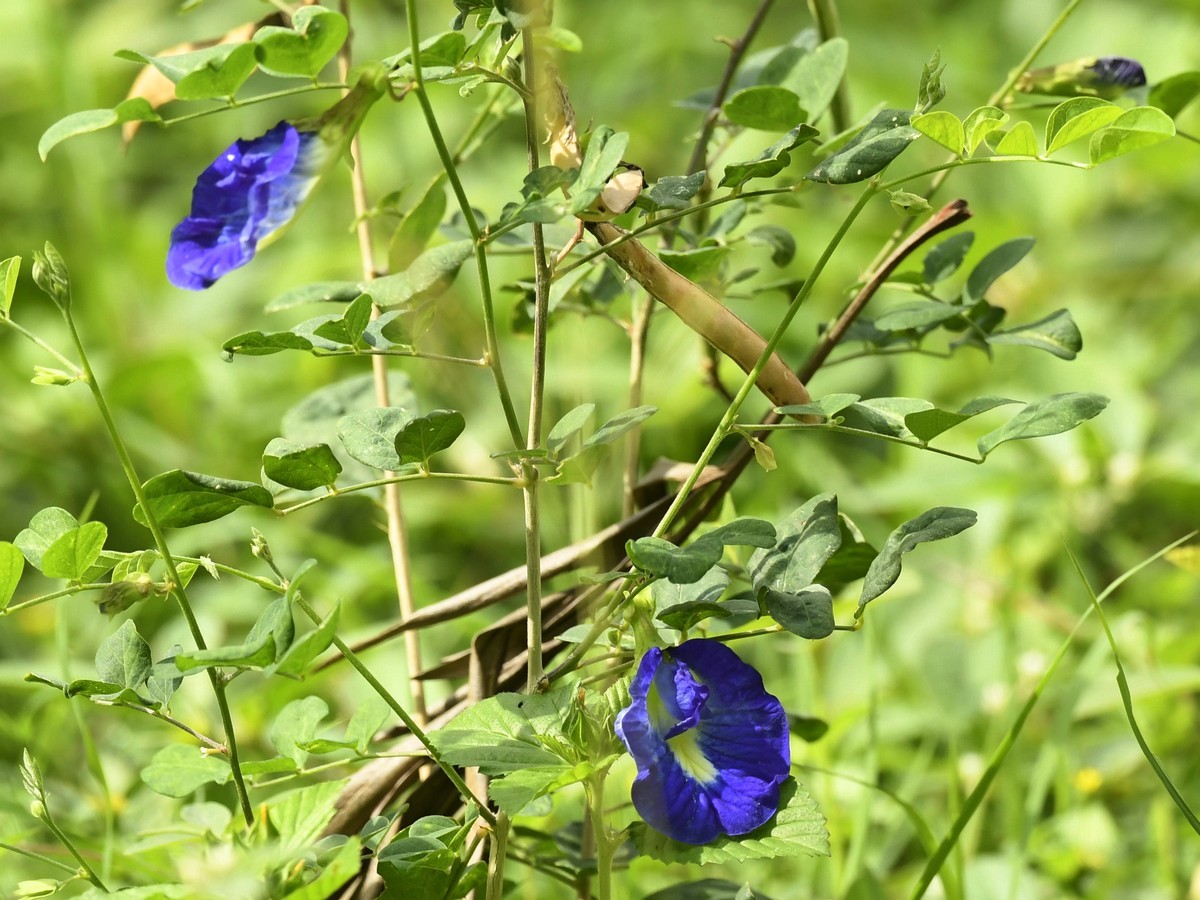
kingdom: Plantae
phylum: Tracheophyta
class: Magnoliopsida
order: Fabales
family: Fabaceae
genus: Clitoria
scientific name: Clitoria ternatea
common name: Asian pigeonwings
